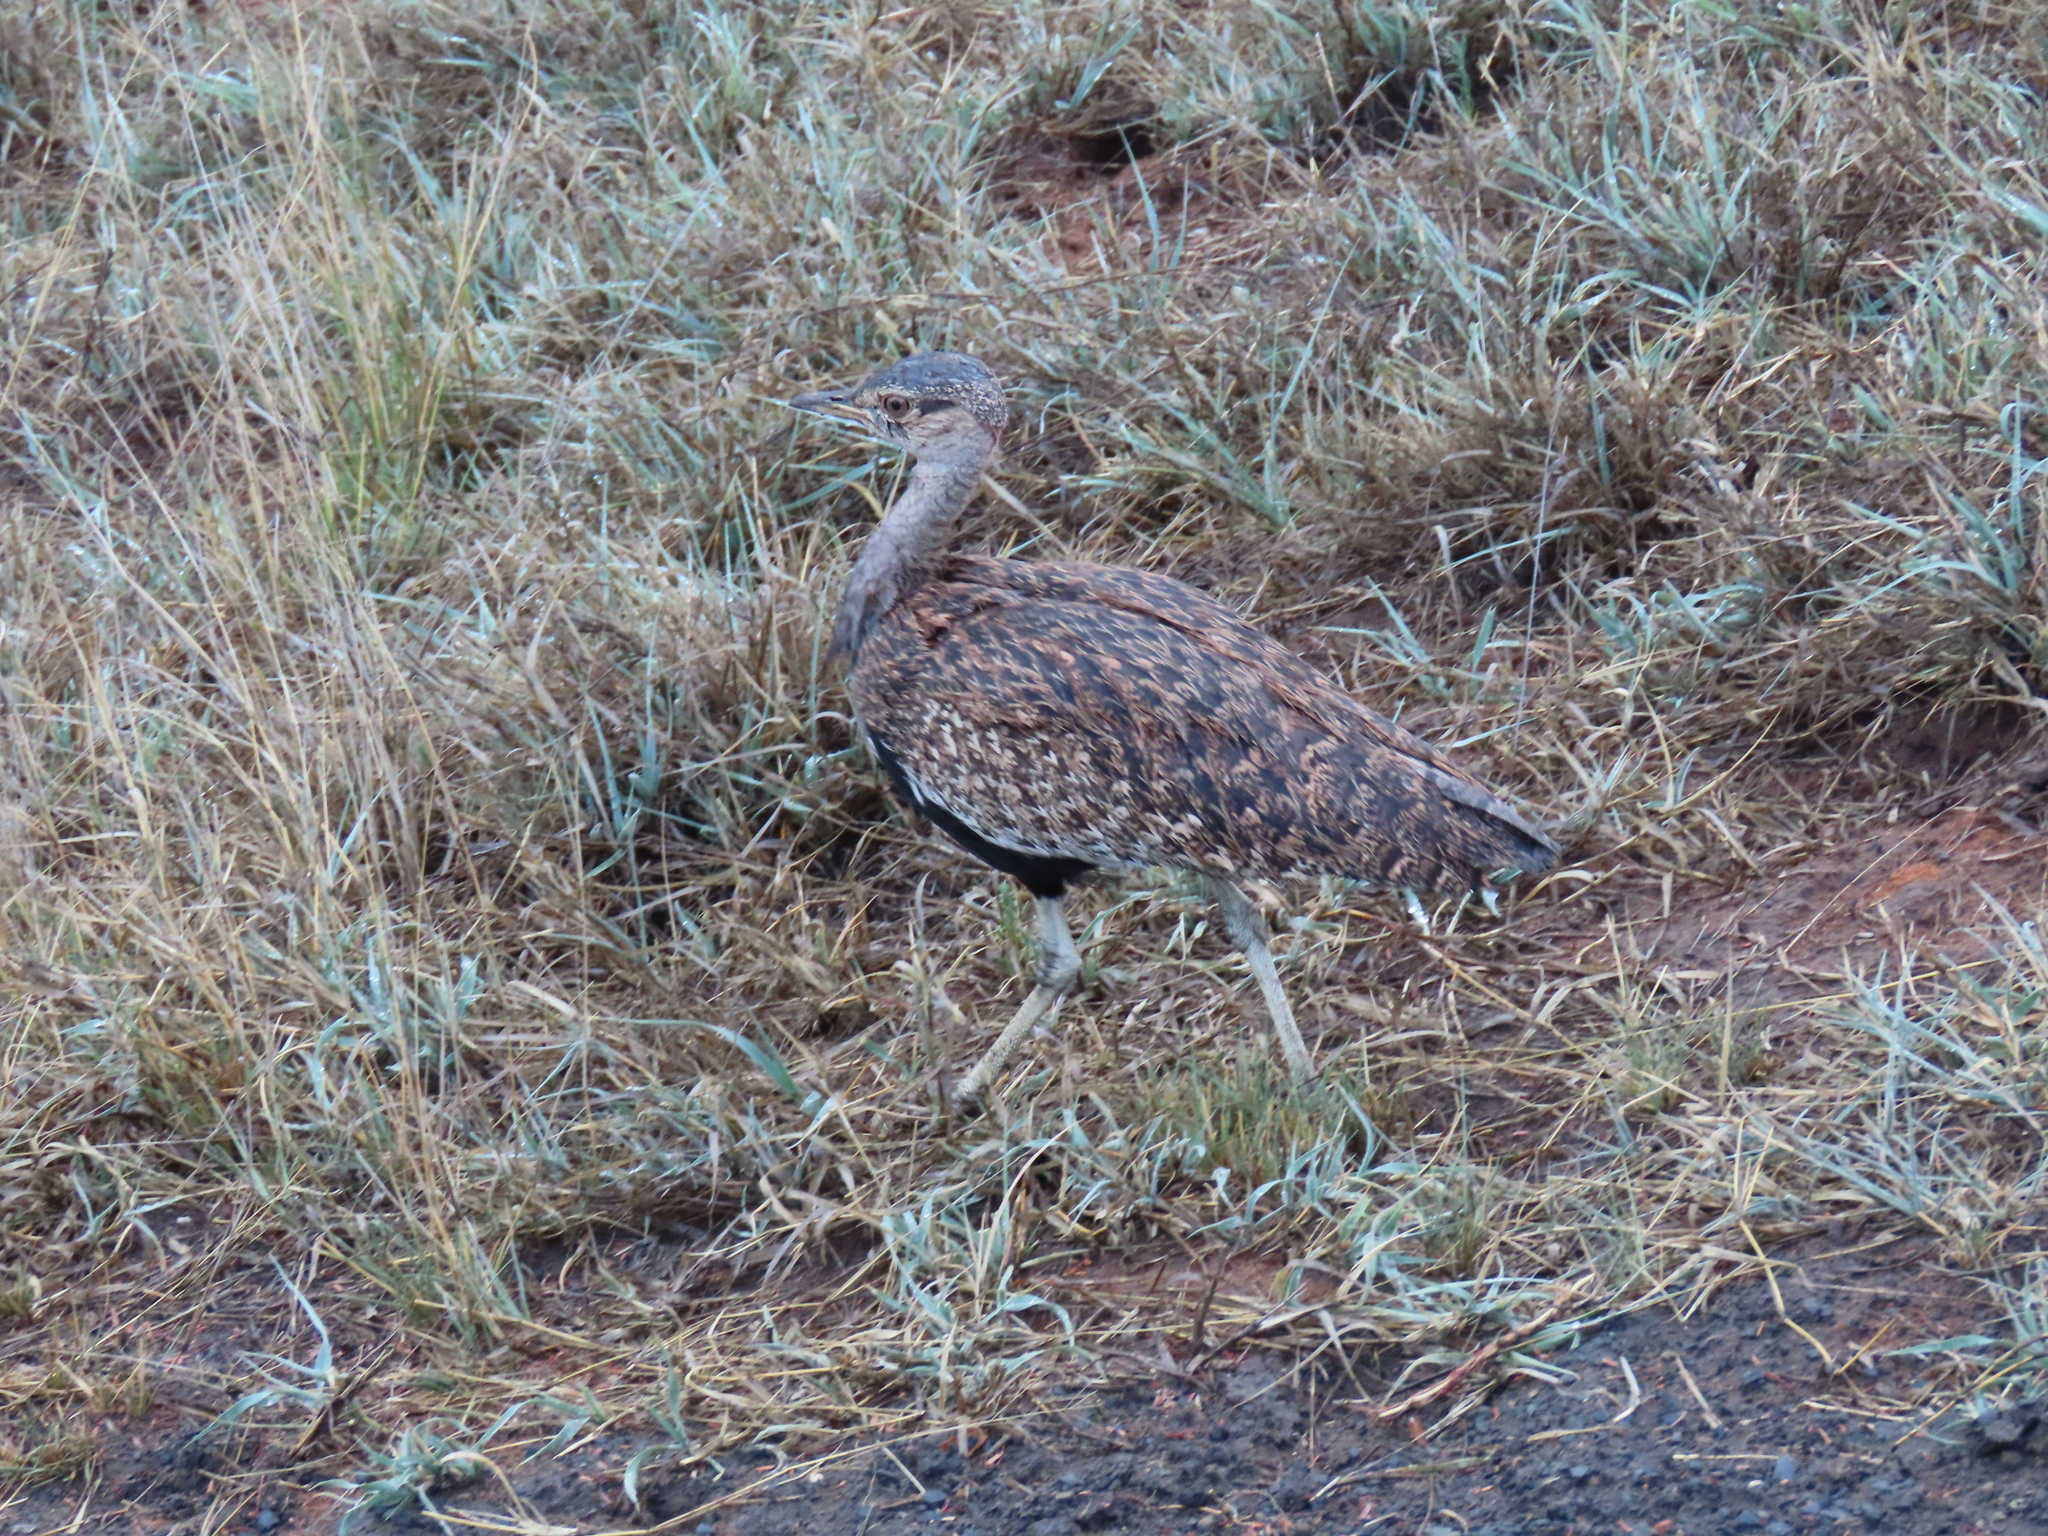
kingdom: Animalia
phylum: Chordata
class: Aves
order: Otidiformes
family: Otididae
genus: Lophotis
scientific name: Lophotis ruficrista
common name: Red-crested korhaan
